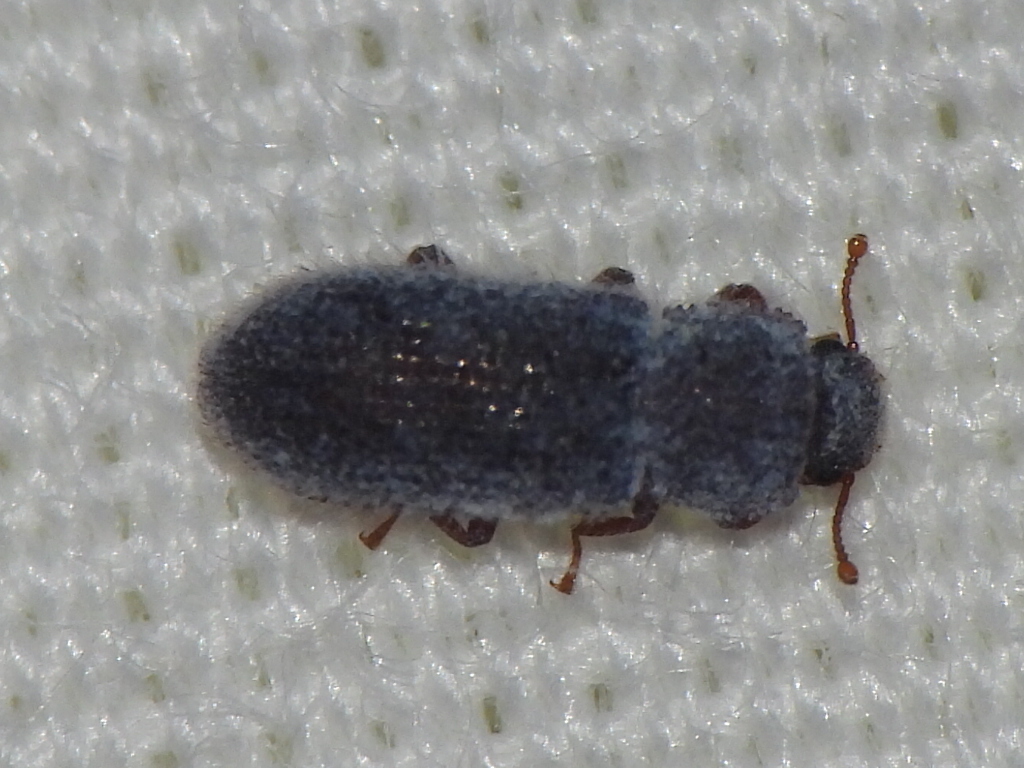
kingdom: Animalia
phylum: Arthropoda
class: Insecta
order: Coleoptera
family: Zopheridae
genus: Endeitoma
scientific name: Endeitoma granulata
